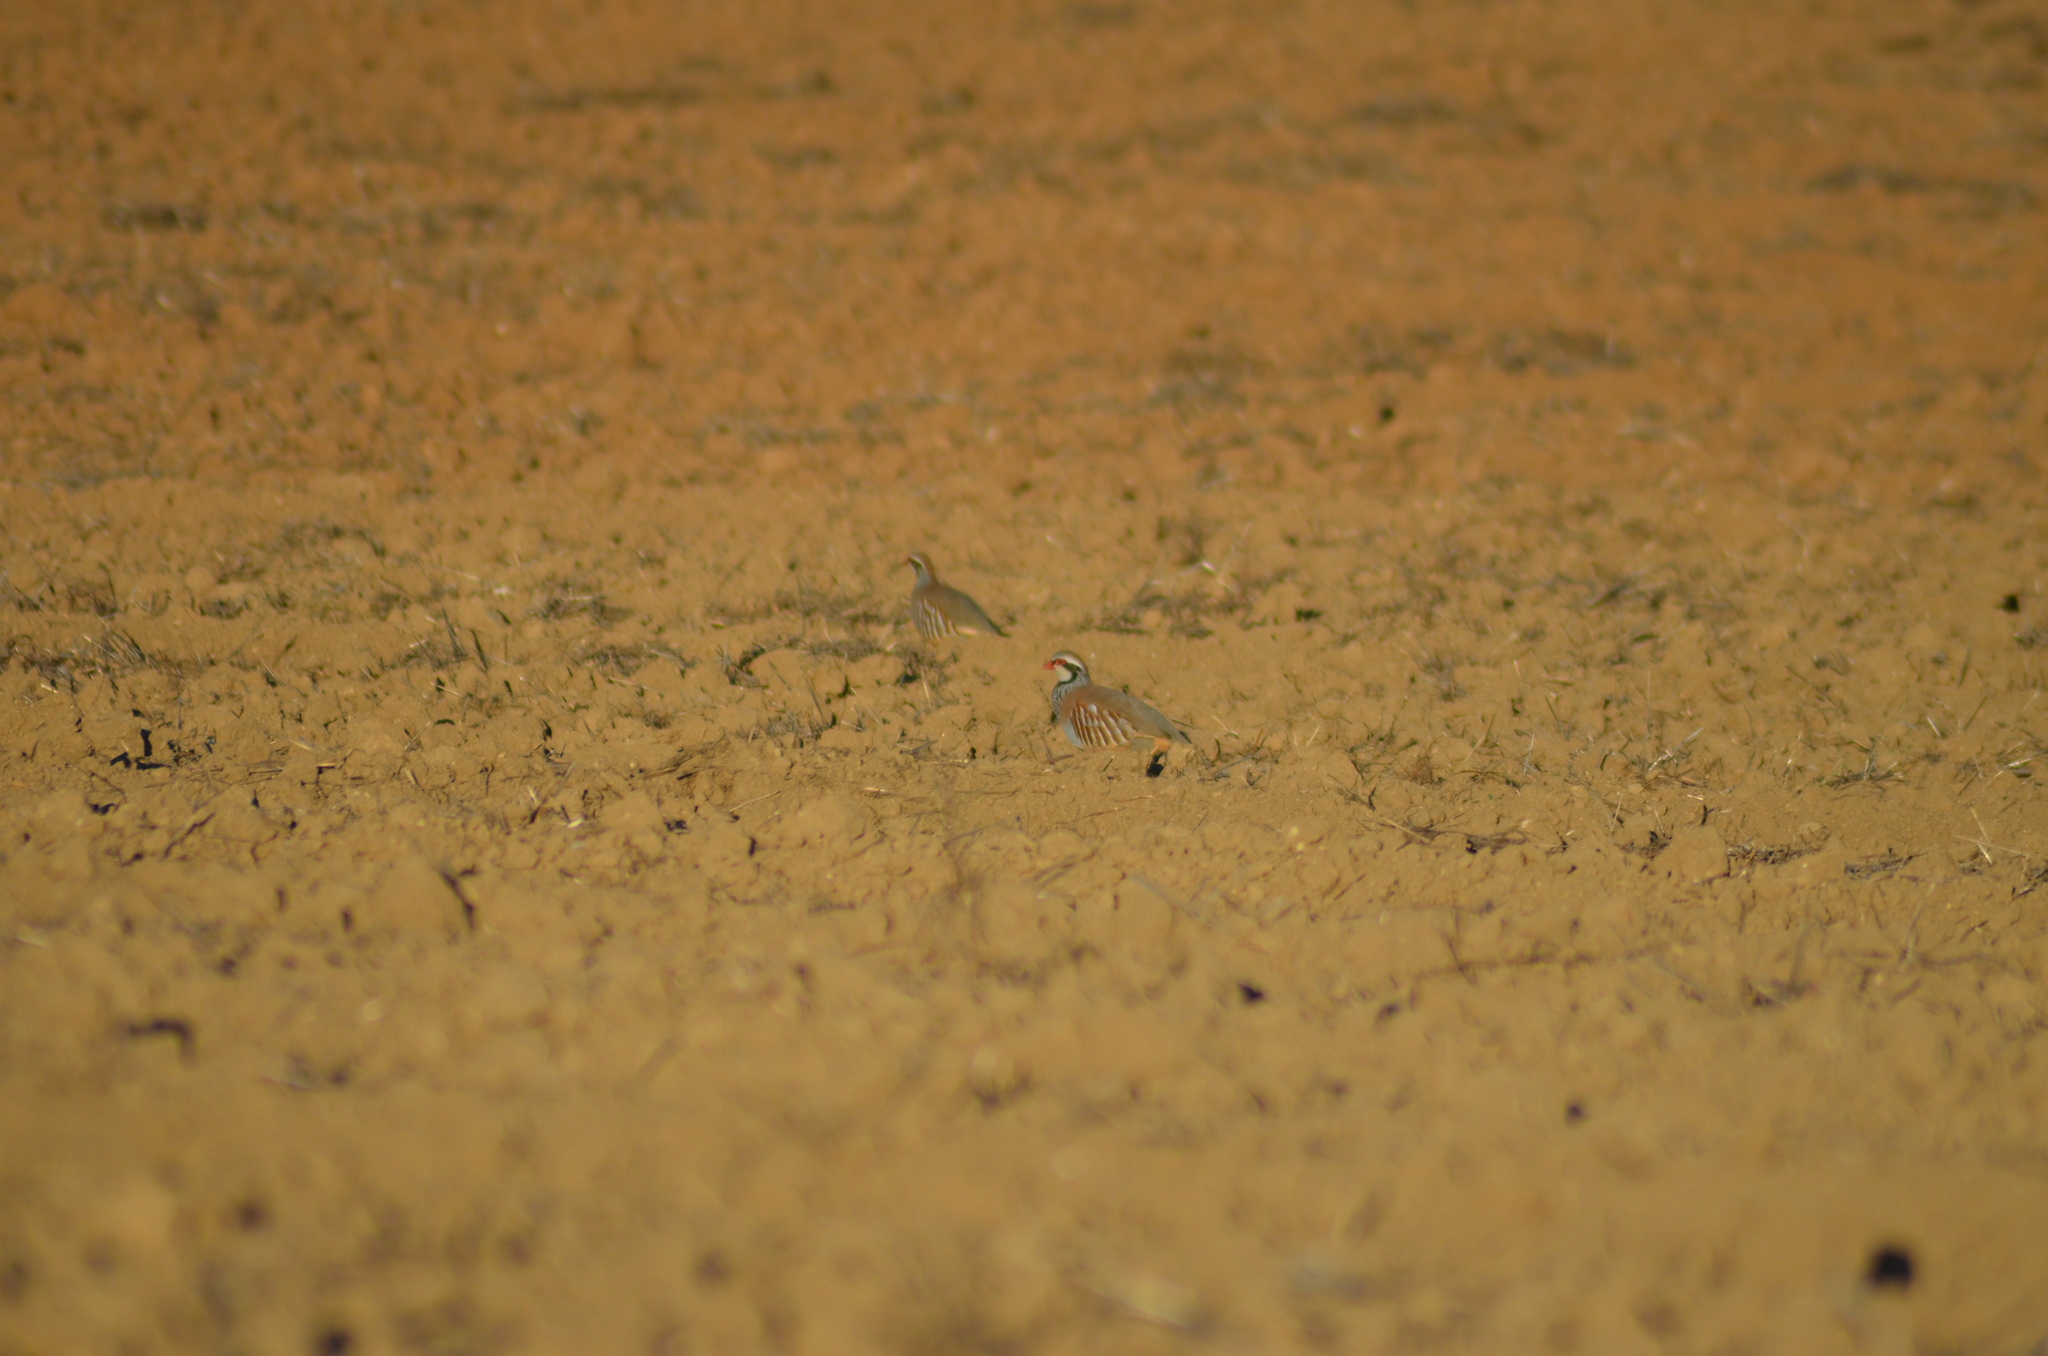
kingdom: Animalia
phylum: Chordata
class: Aves
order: Galliformes
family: Phasianidae
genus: Alectoris
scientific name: Alectoris rufa
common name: Red-legged partridge
